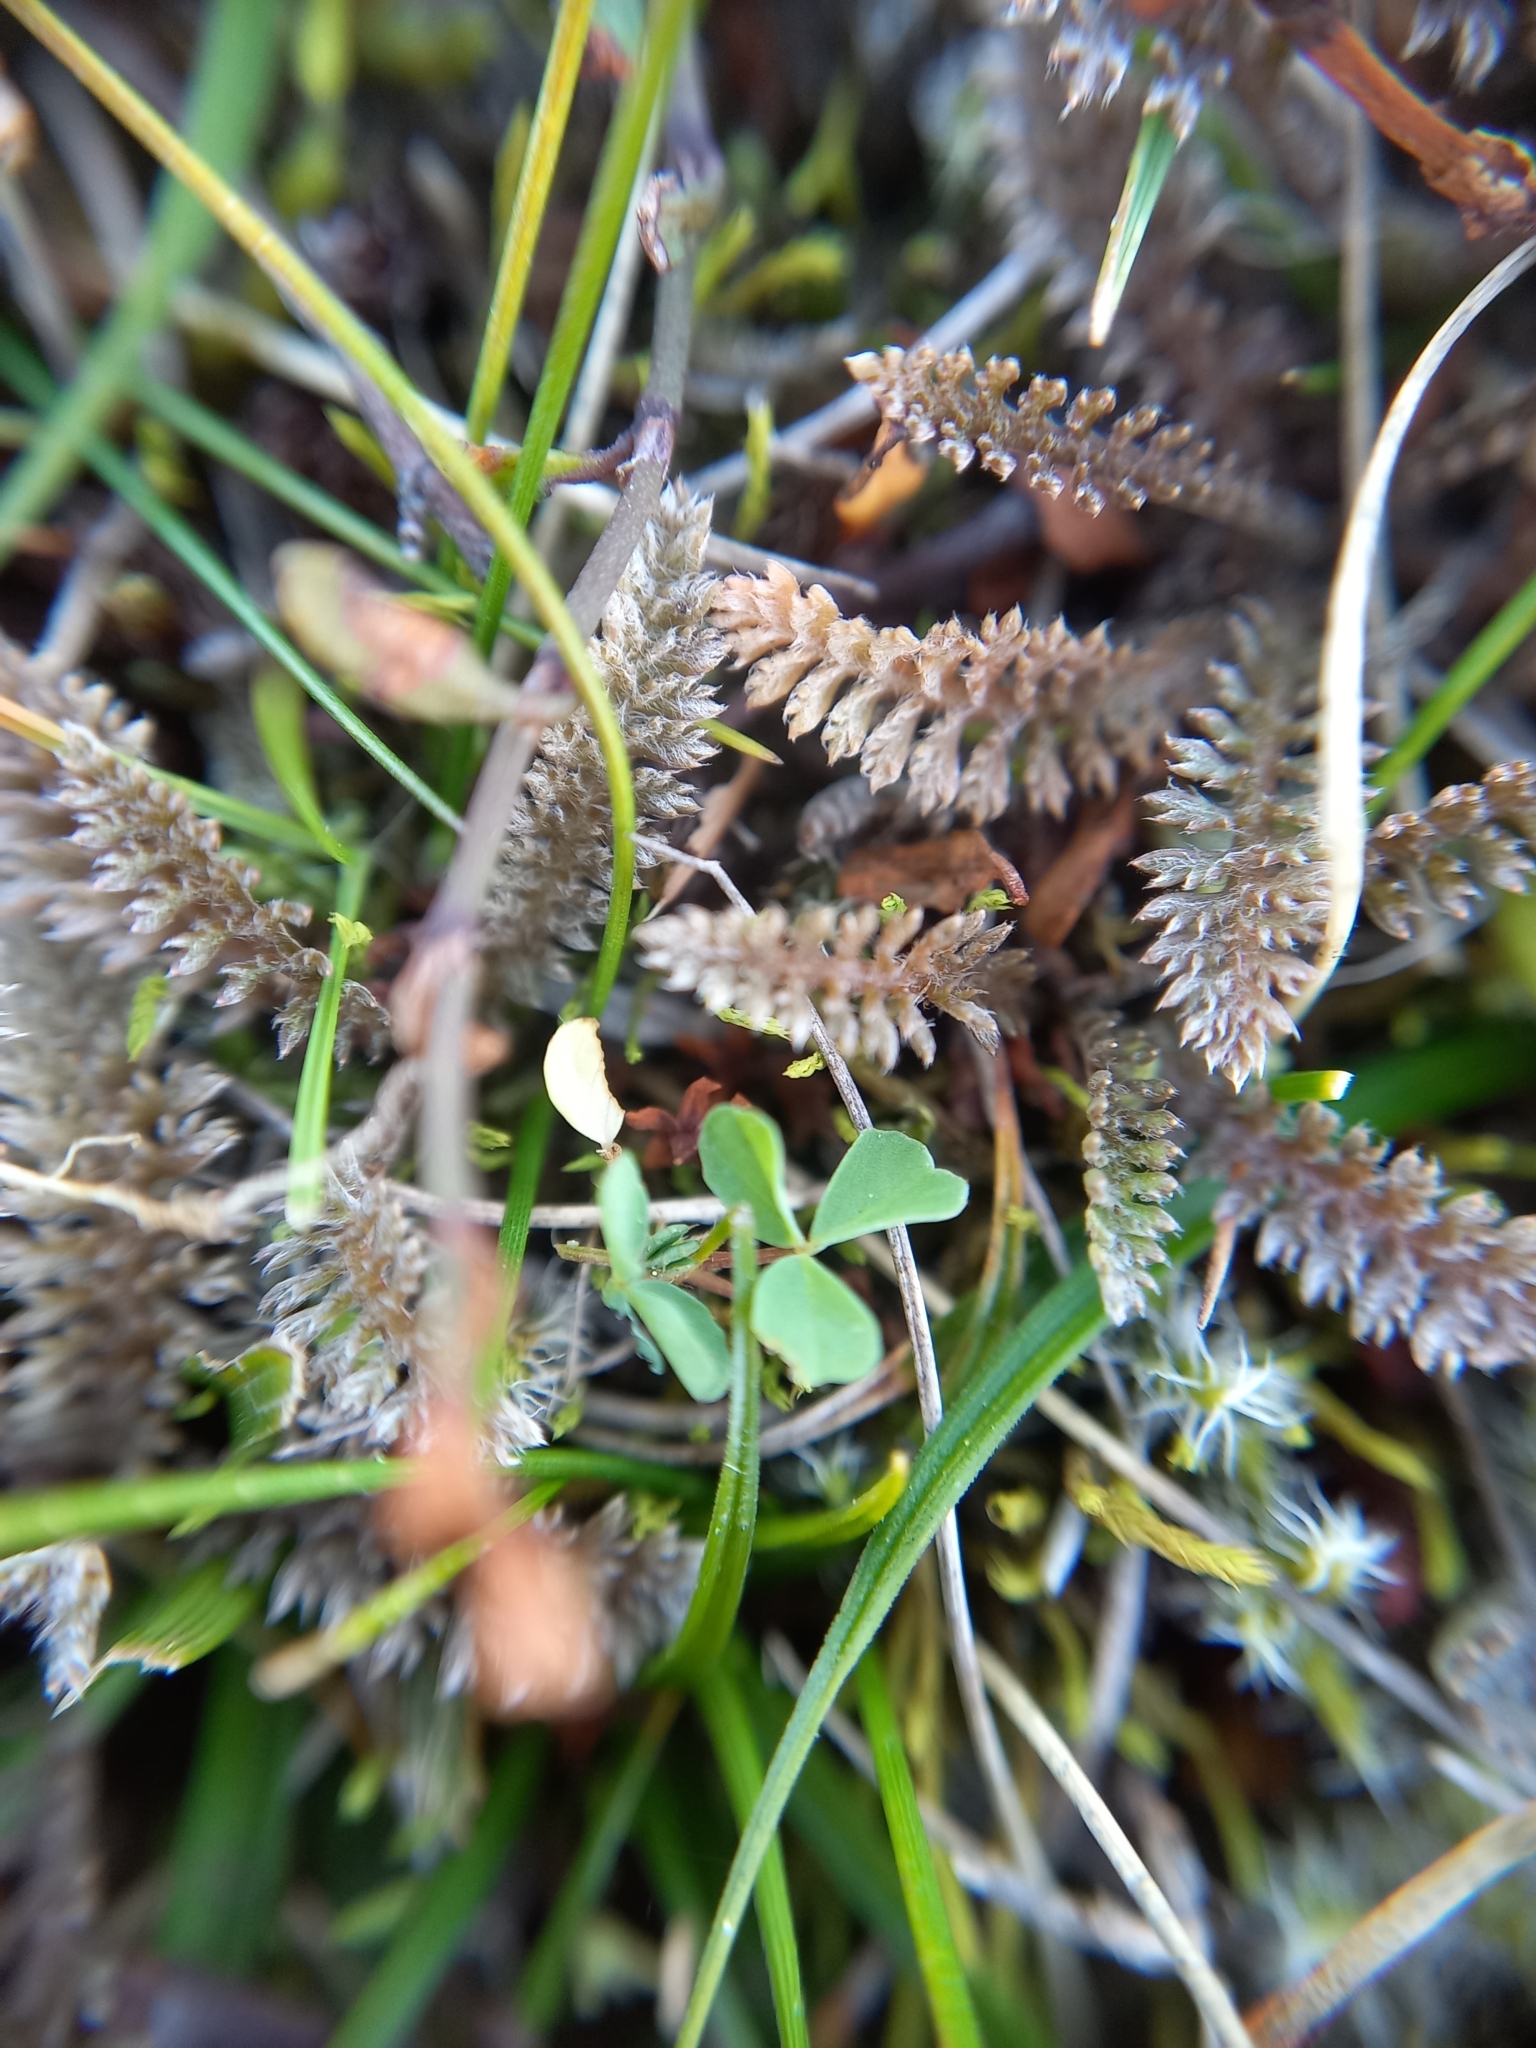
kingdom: Plantae
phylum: Tracheophyta
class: Magnoliopsida
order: Asterales
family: Asteraceae
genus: Leptinella
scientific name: Leptinella serrulata
